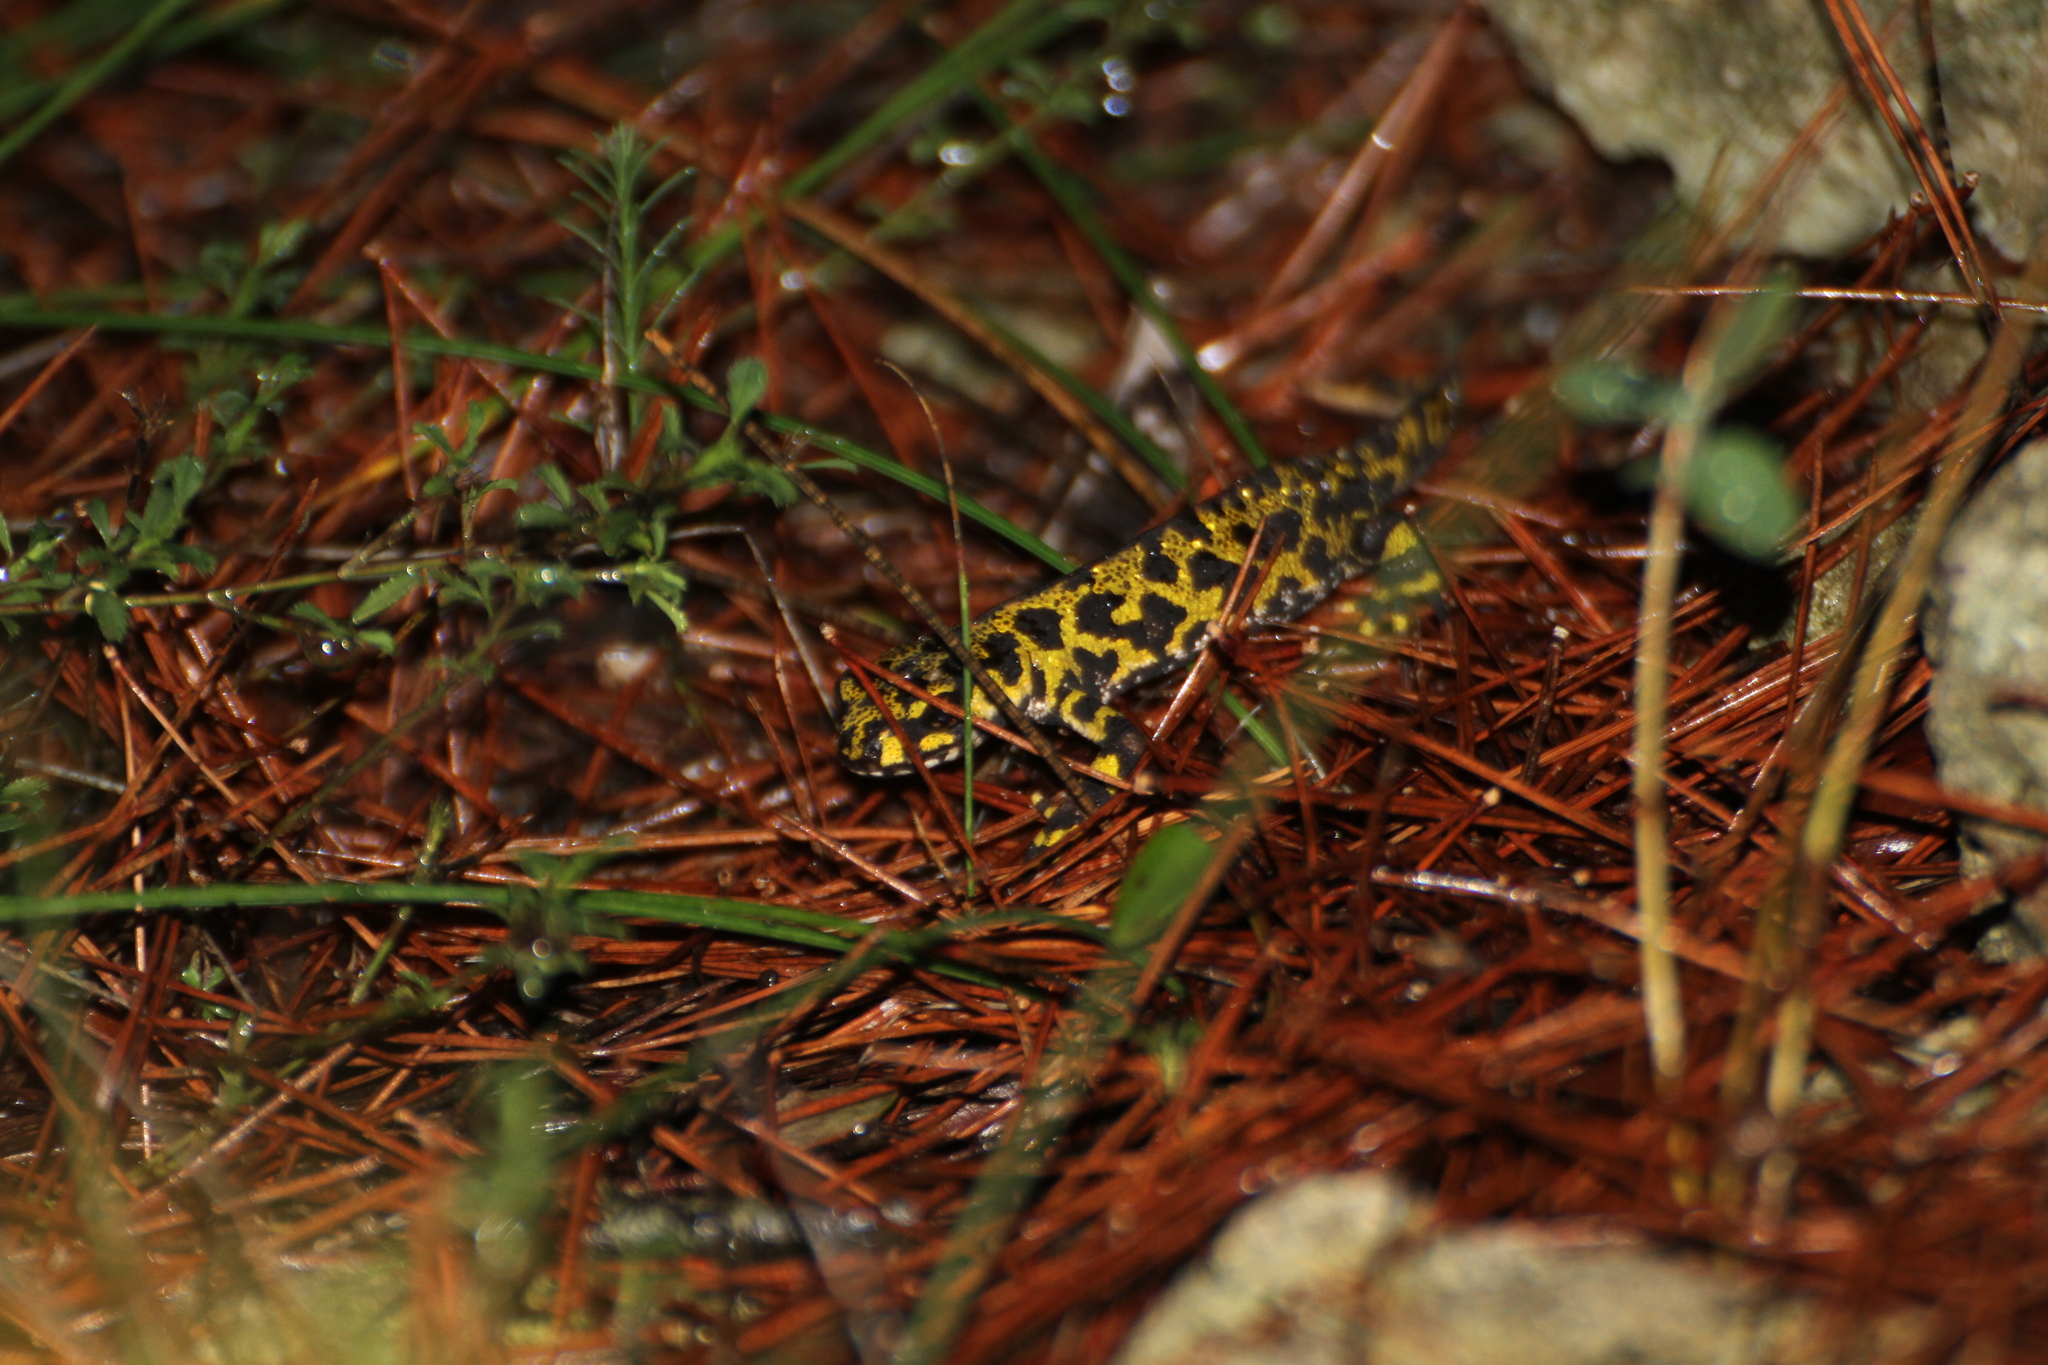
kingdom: Animalia
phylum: Chordata
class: Amphibia
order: Caudata
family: Salamandridae
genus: Triturus
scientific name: Triturus marmoratus
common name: Marbled newt
